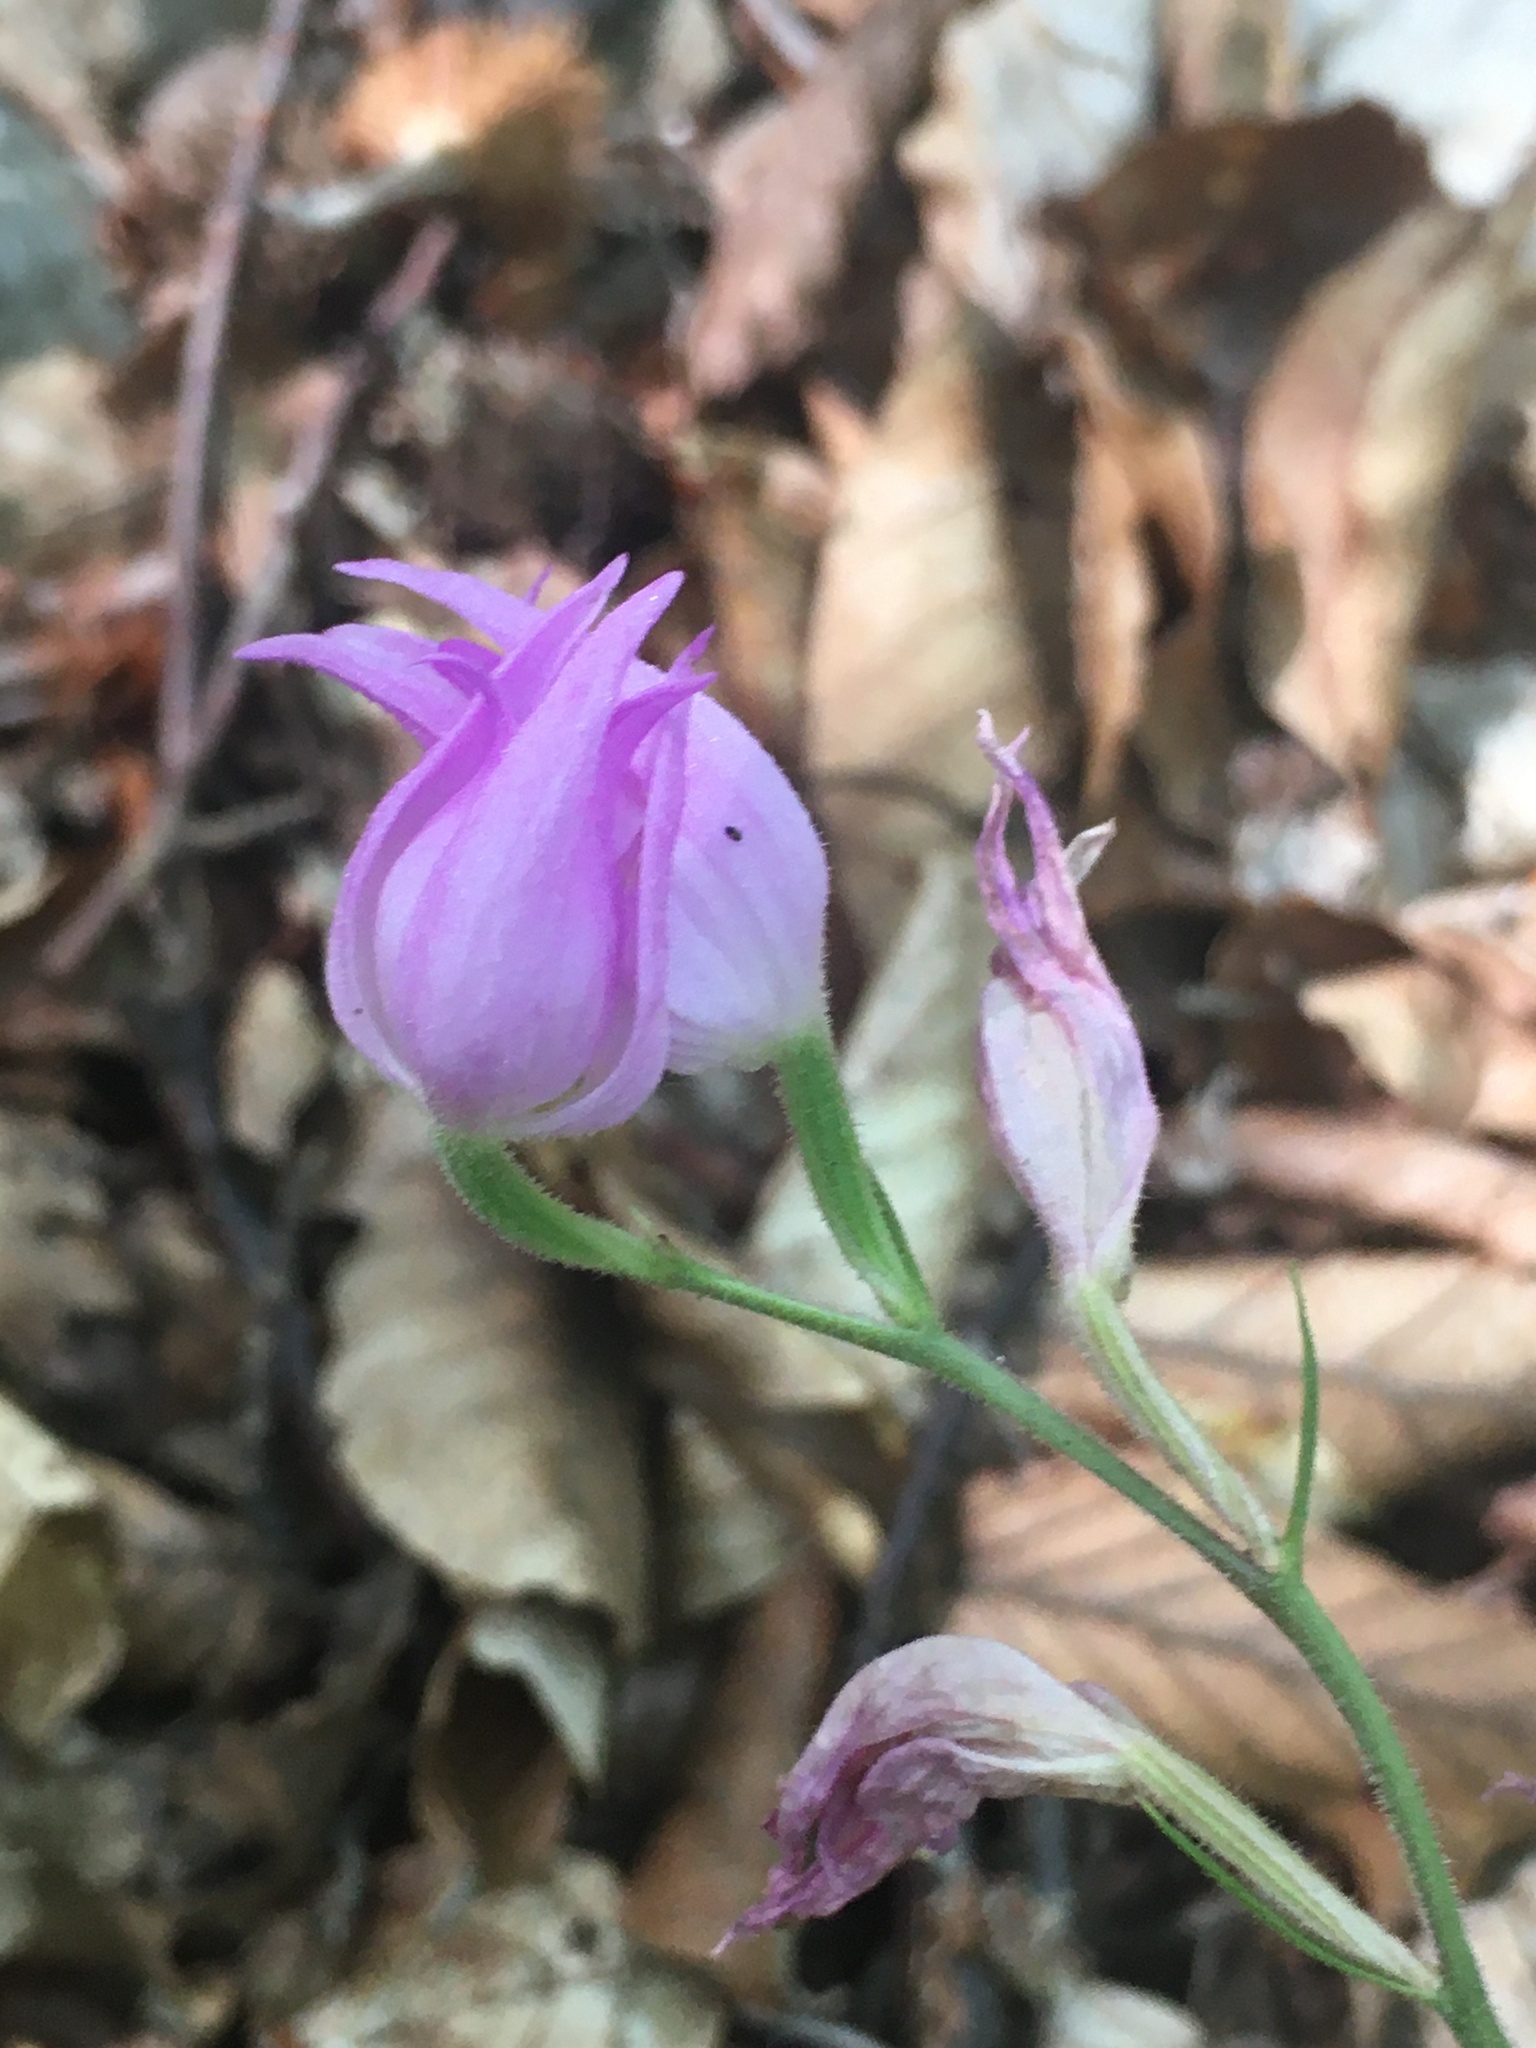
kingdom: Plantae
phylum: Tracheophyta
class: Liliopsida
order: Asparagales
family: Orchidaceae
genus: Cephalanthera
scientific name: Cephalanthera rubra
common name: Red helleborine
